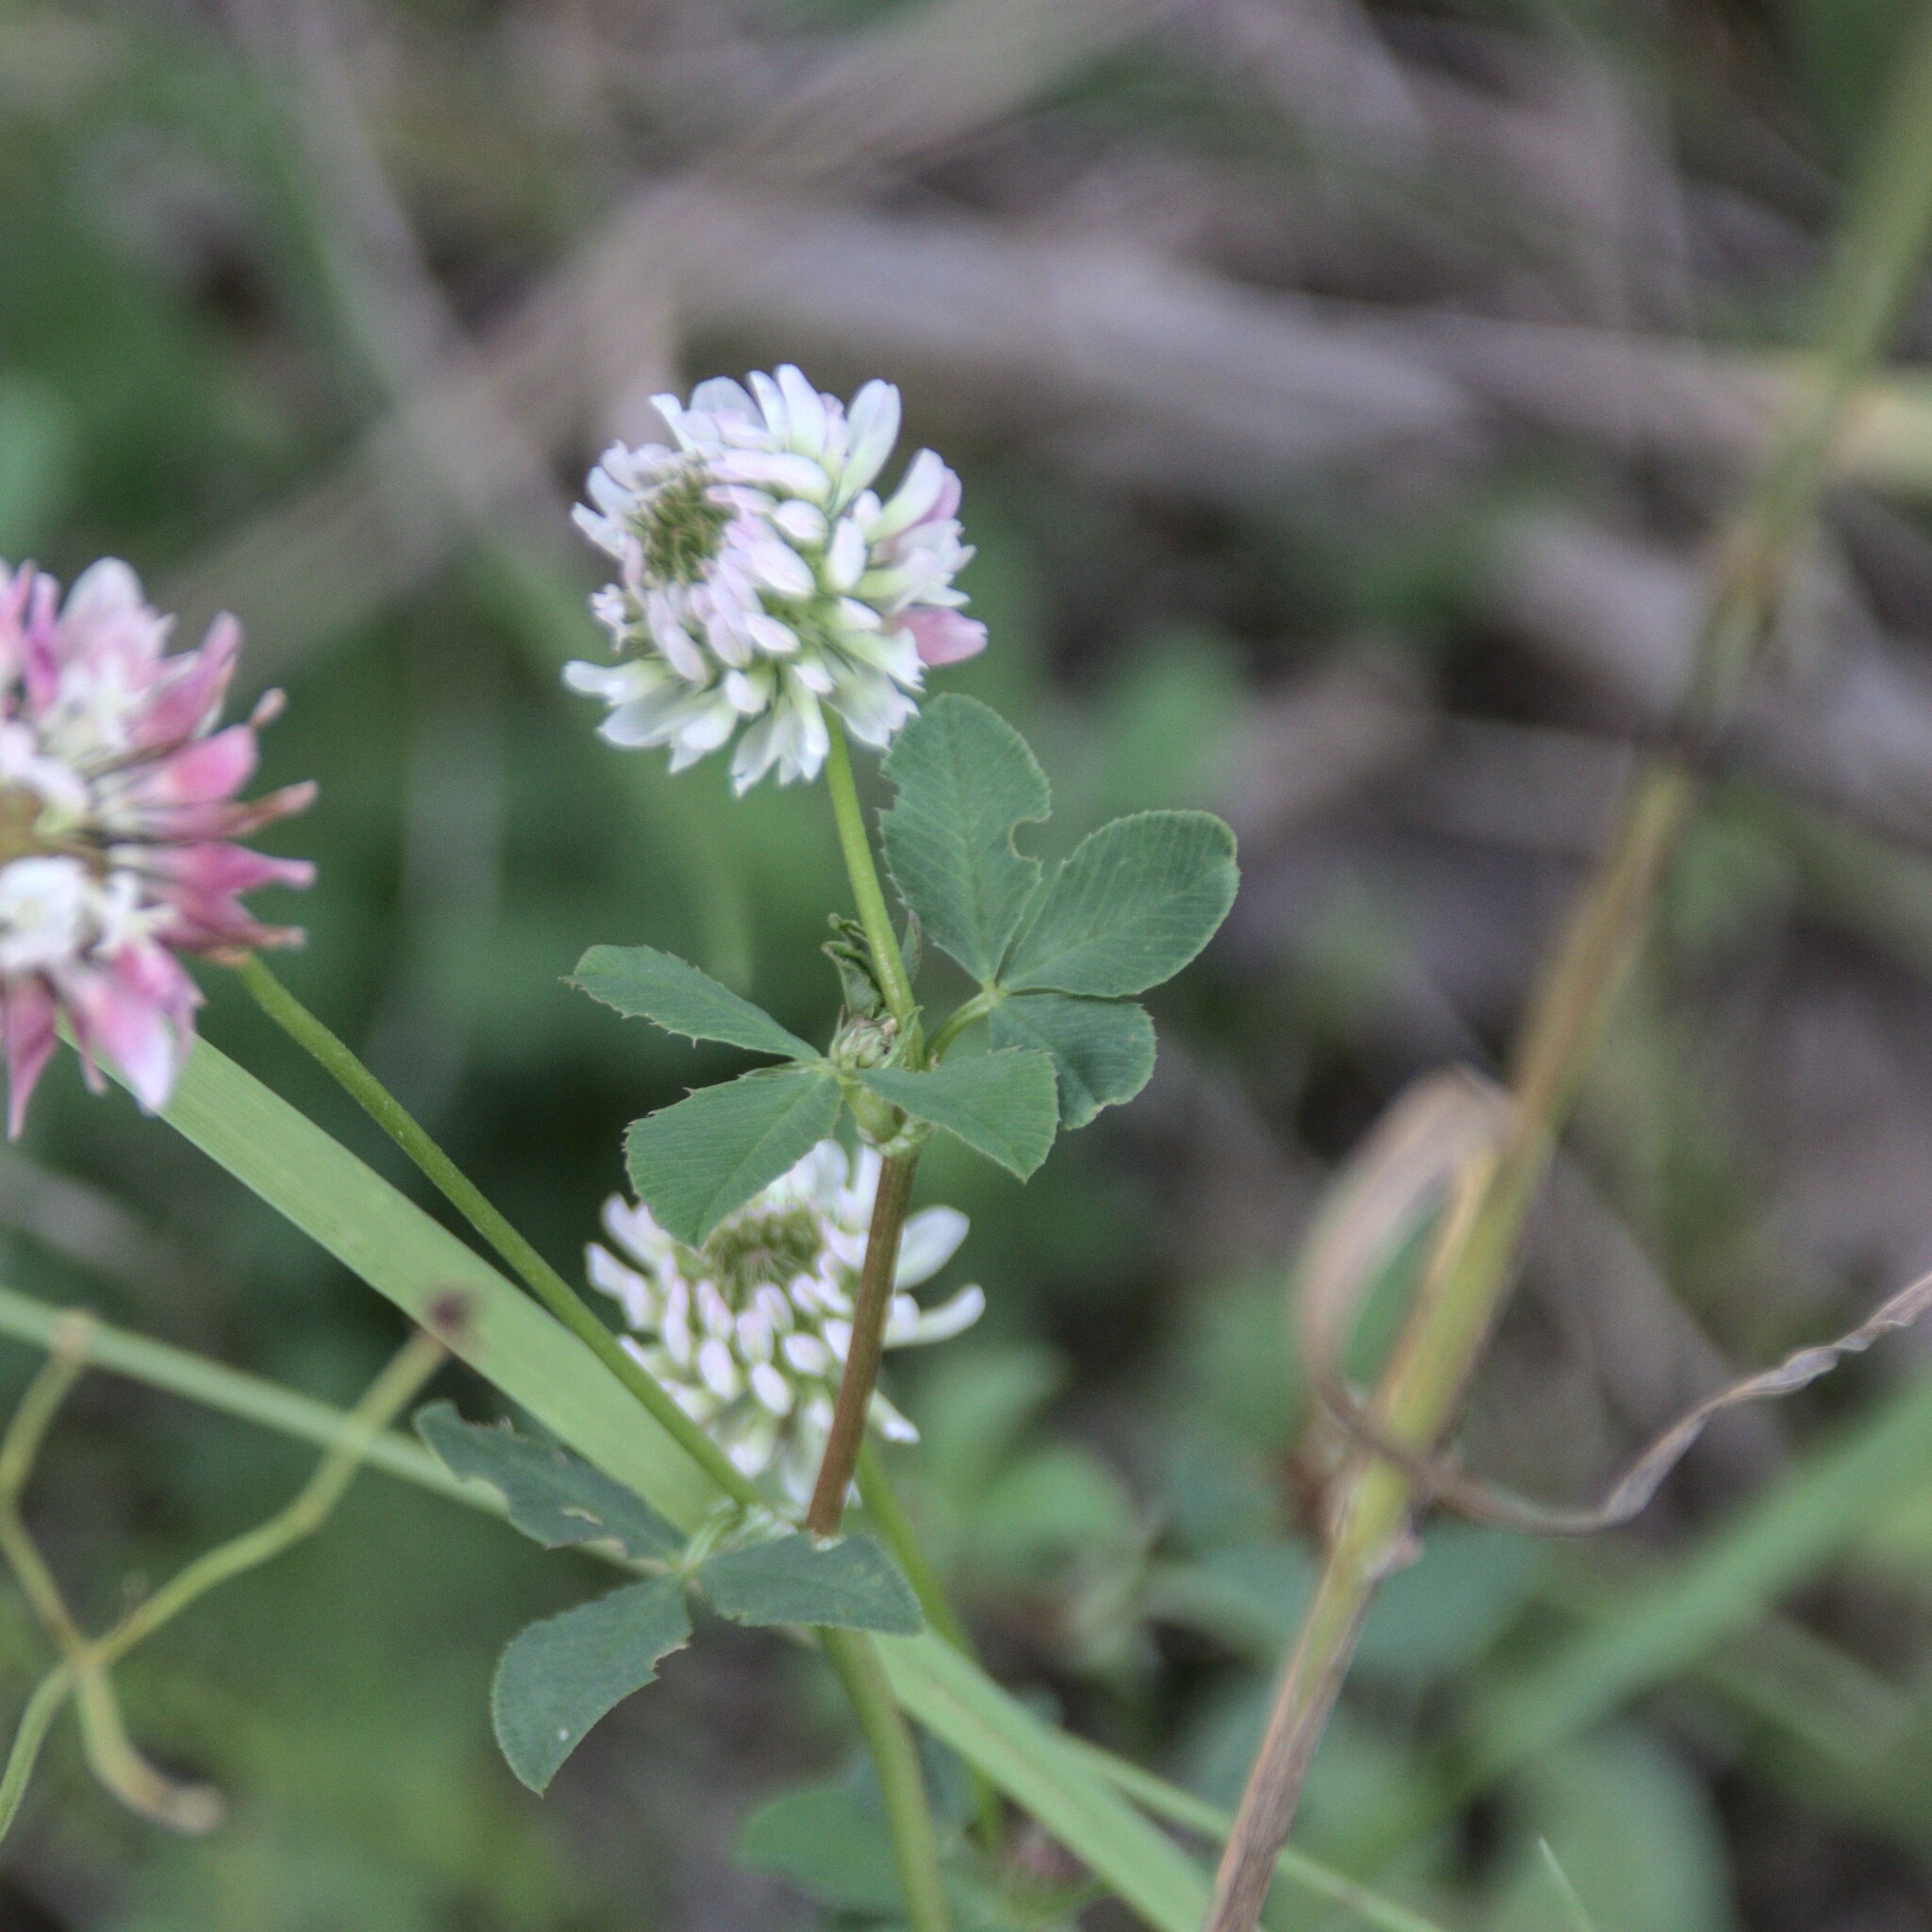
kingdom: Plantae
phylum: Tracheophyta
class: Magnoliopsida
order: Fabales
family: Fabaceae
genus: Trifolium
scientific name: Trifolium hybridum
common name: Alsike clover
